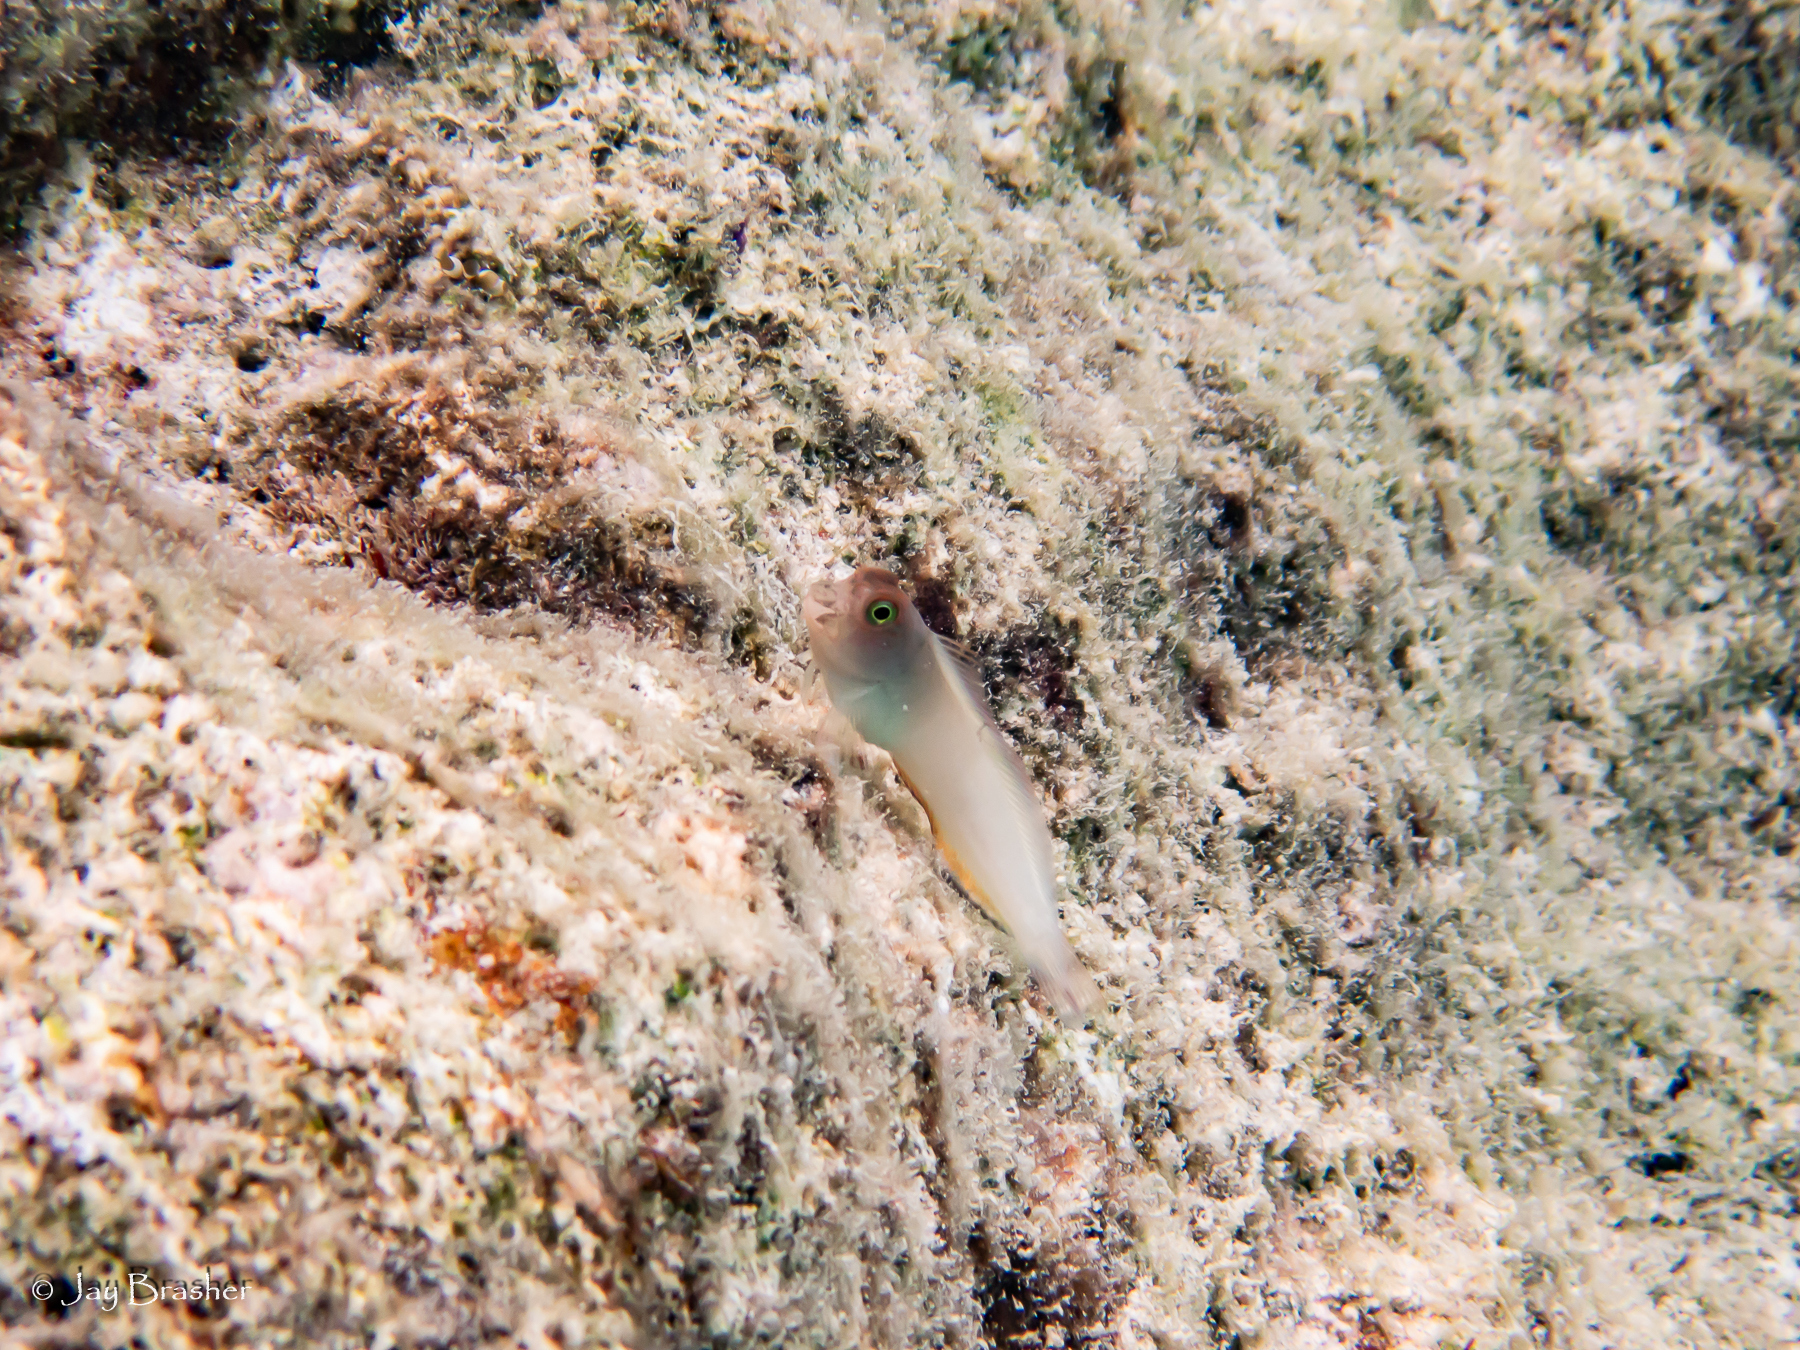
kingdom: Animalia
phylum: Chordata
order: Perciformes
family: Blenniidae
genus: Ophioblennius
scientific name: Ophioblennius macclurei
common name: Redlip blenny
